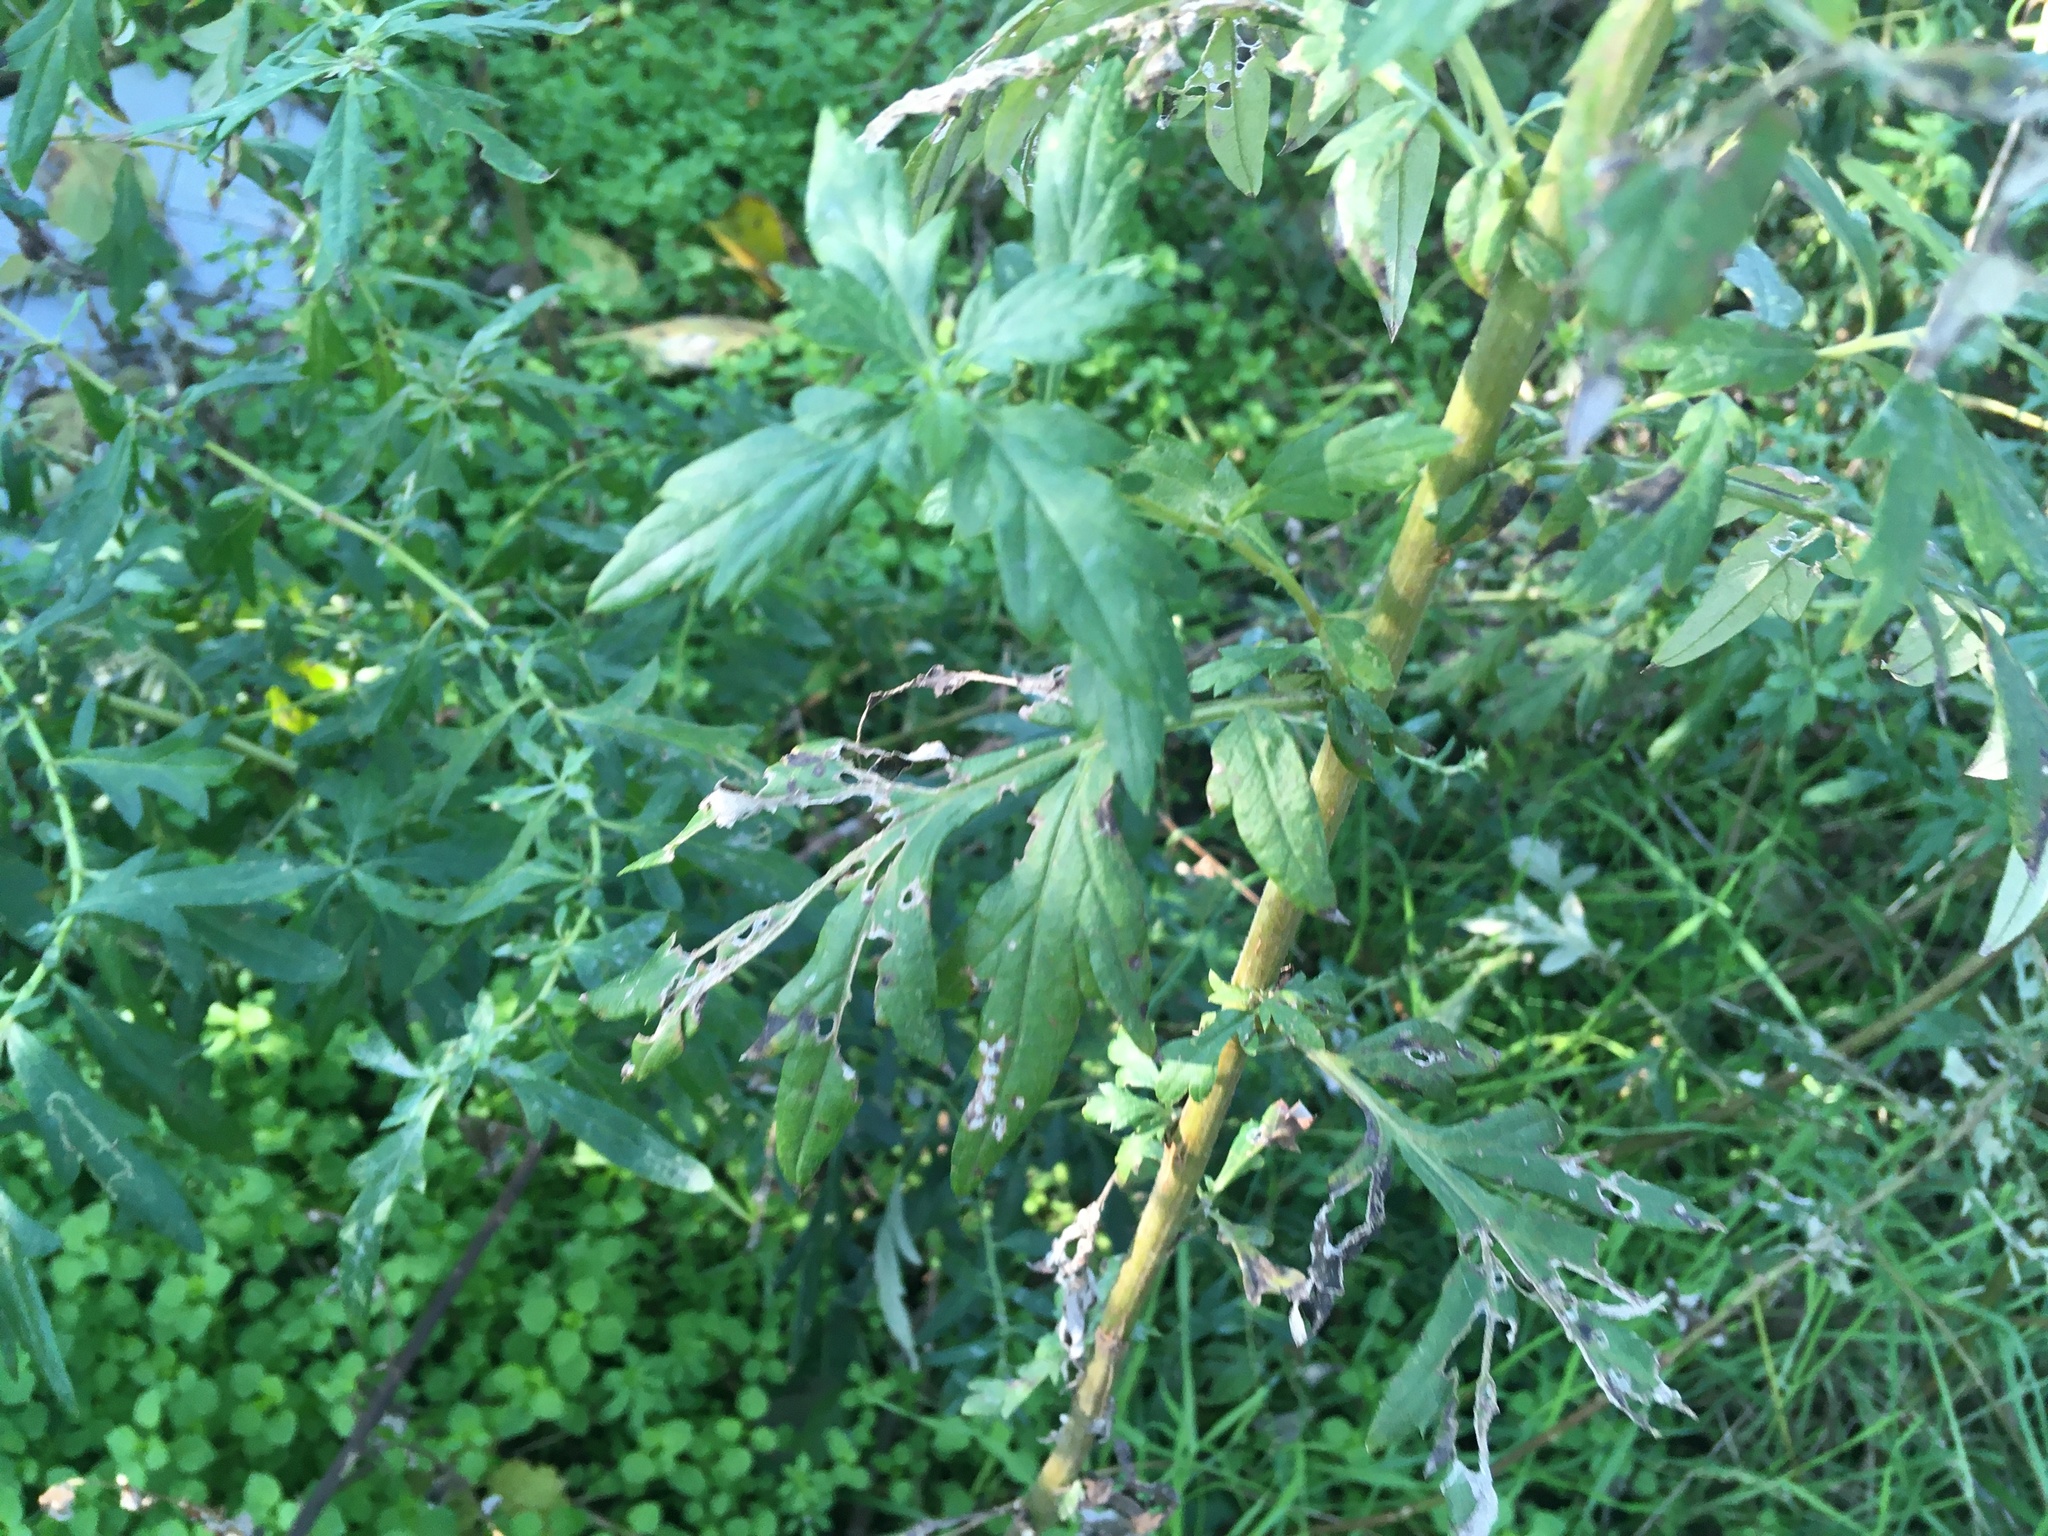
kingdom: Plantae
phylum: Tracheophyta
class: Magnoliopsida
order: Asterales
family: Asteraceae
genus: Artemisia
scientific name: Artemisia vulgaris
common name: Mugwort
